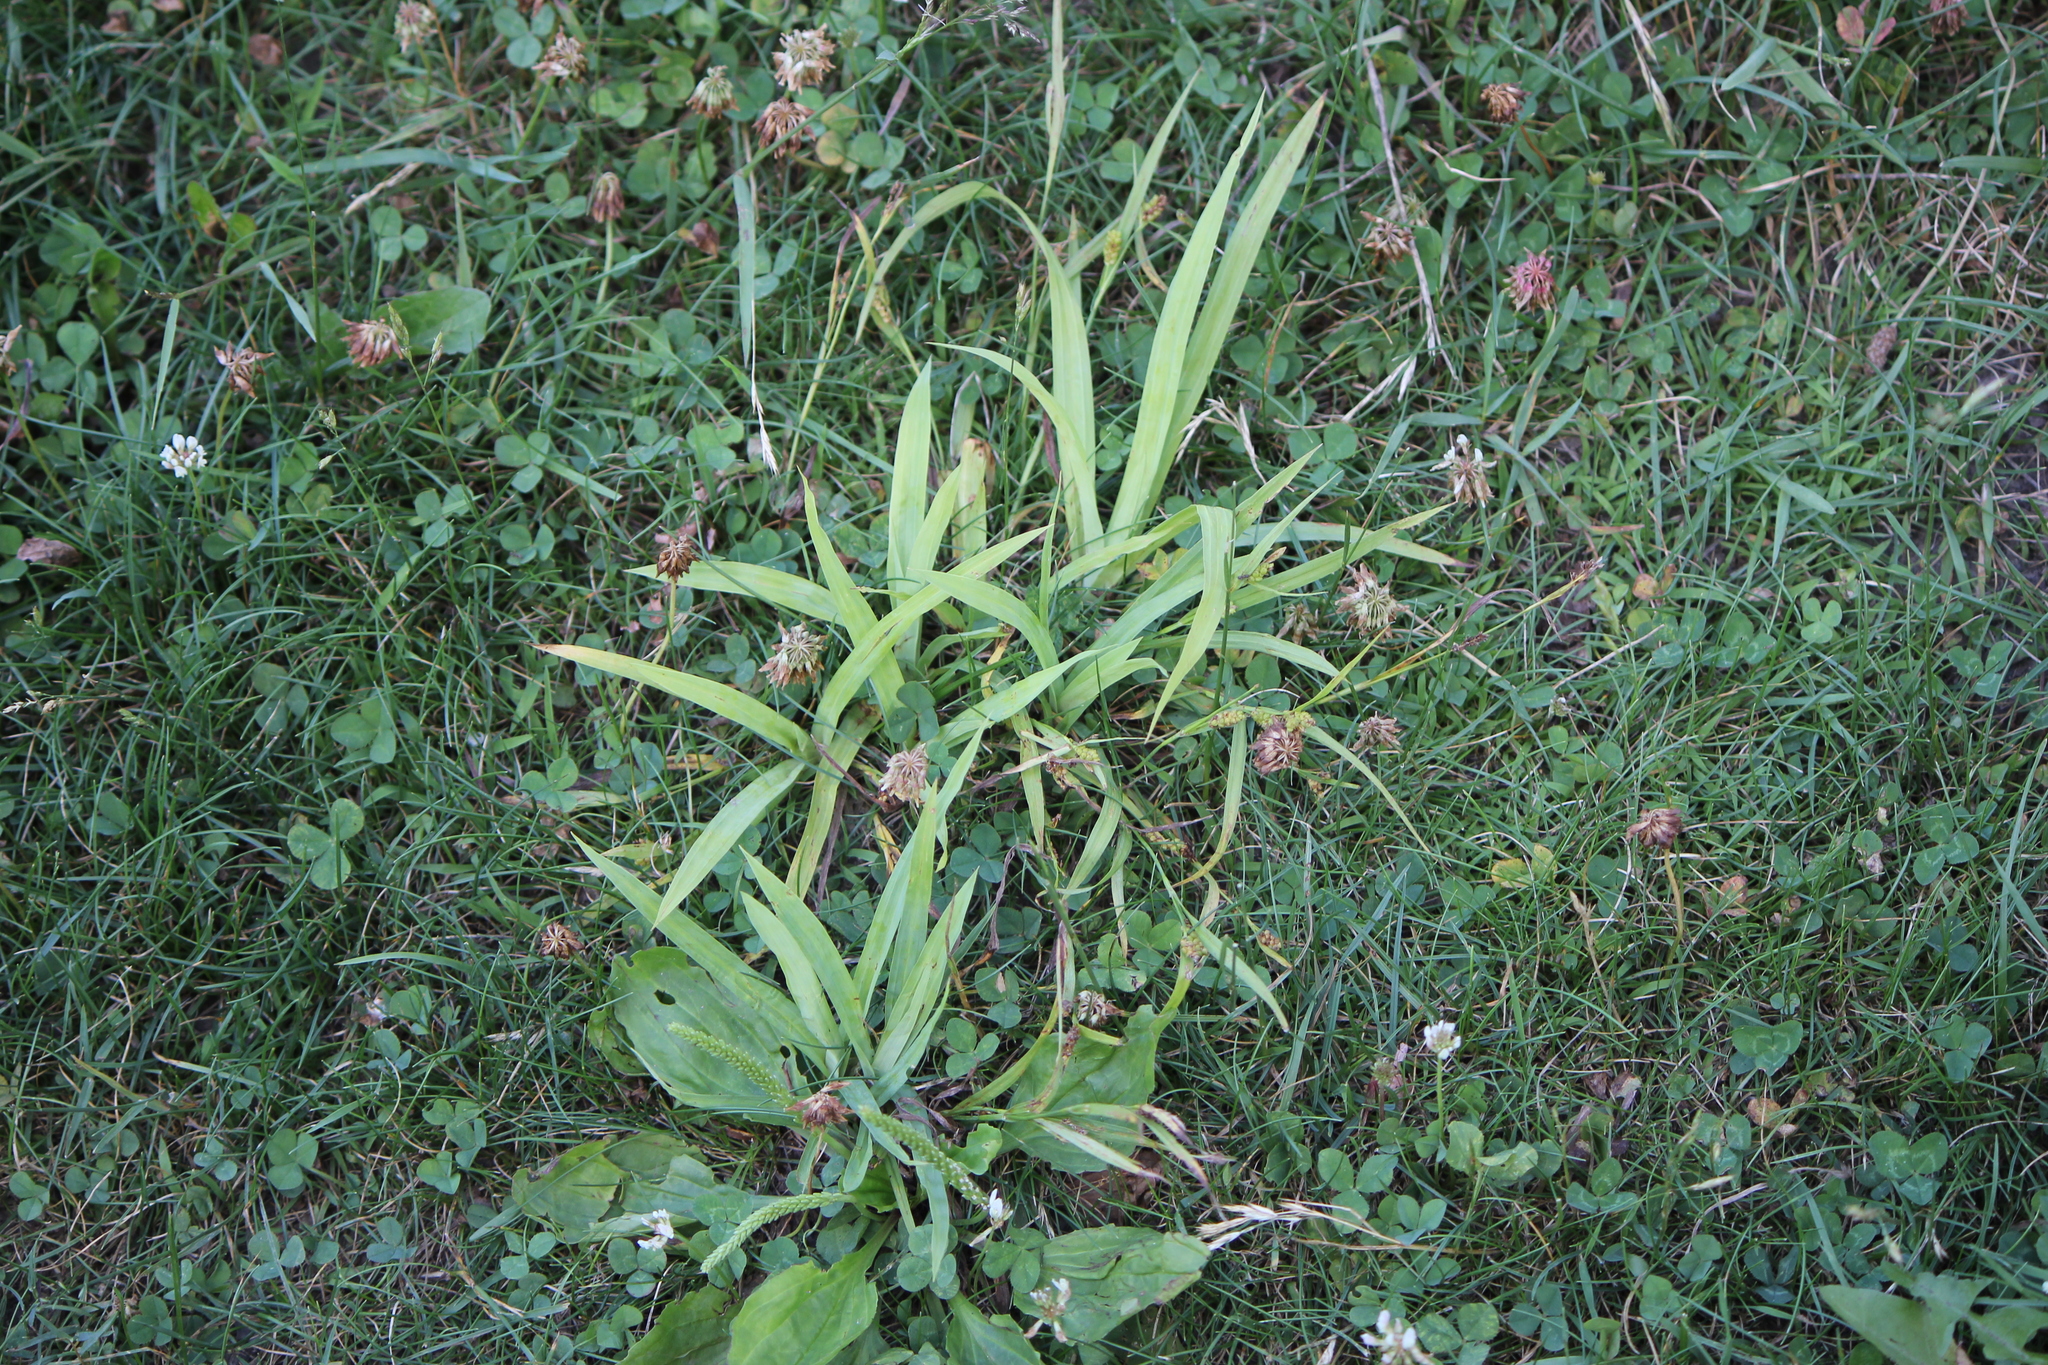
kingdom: Plantae
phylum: Tracheophyta
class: Liliopsida
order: Poales
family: Cyperaceae
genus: Carex
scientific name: Carex granularis
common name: Granular sedge
